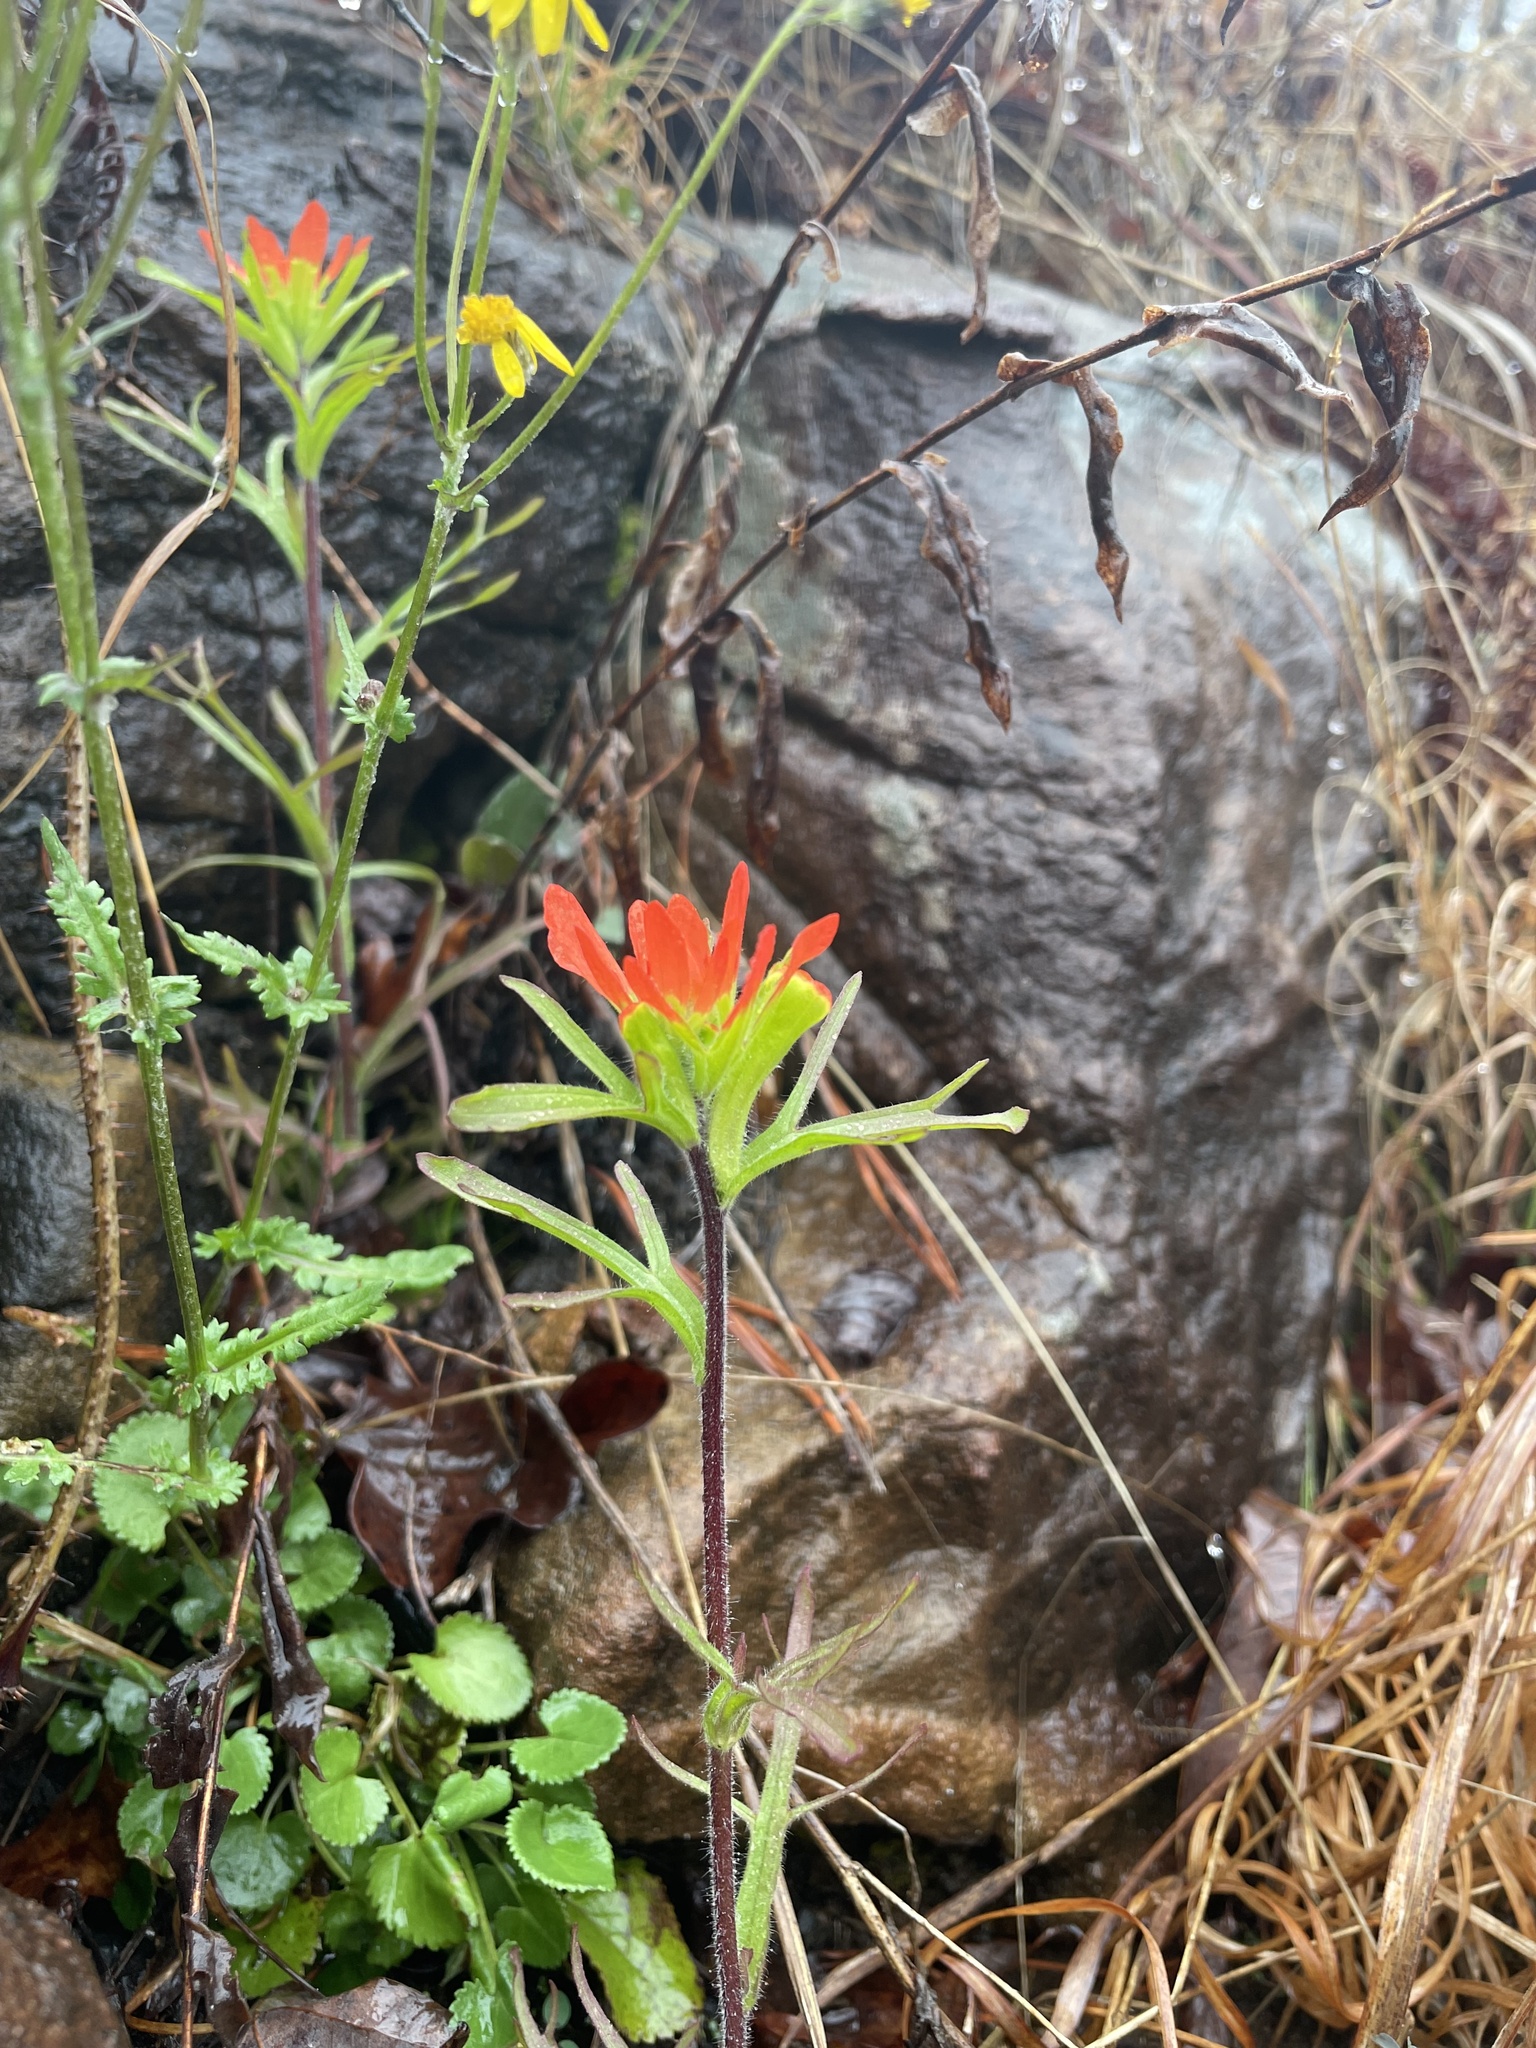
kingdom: Plantae
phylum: Tracheophyta
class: Magnoliopsida
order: Lamiales
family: Orobanchaceae
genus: Castilleja
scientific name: Castilleja coccinea
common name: Scarlet paintbrush
